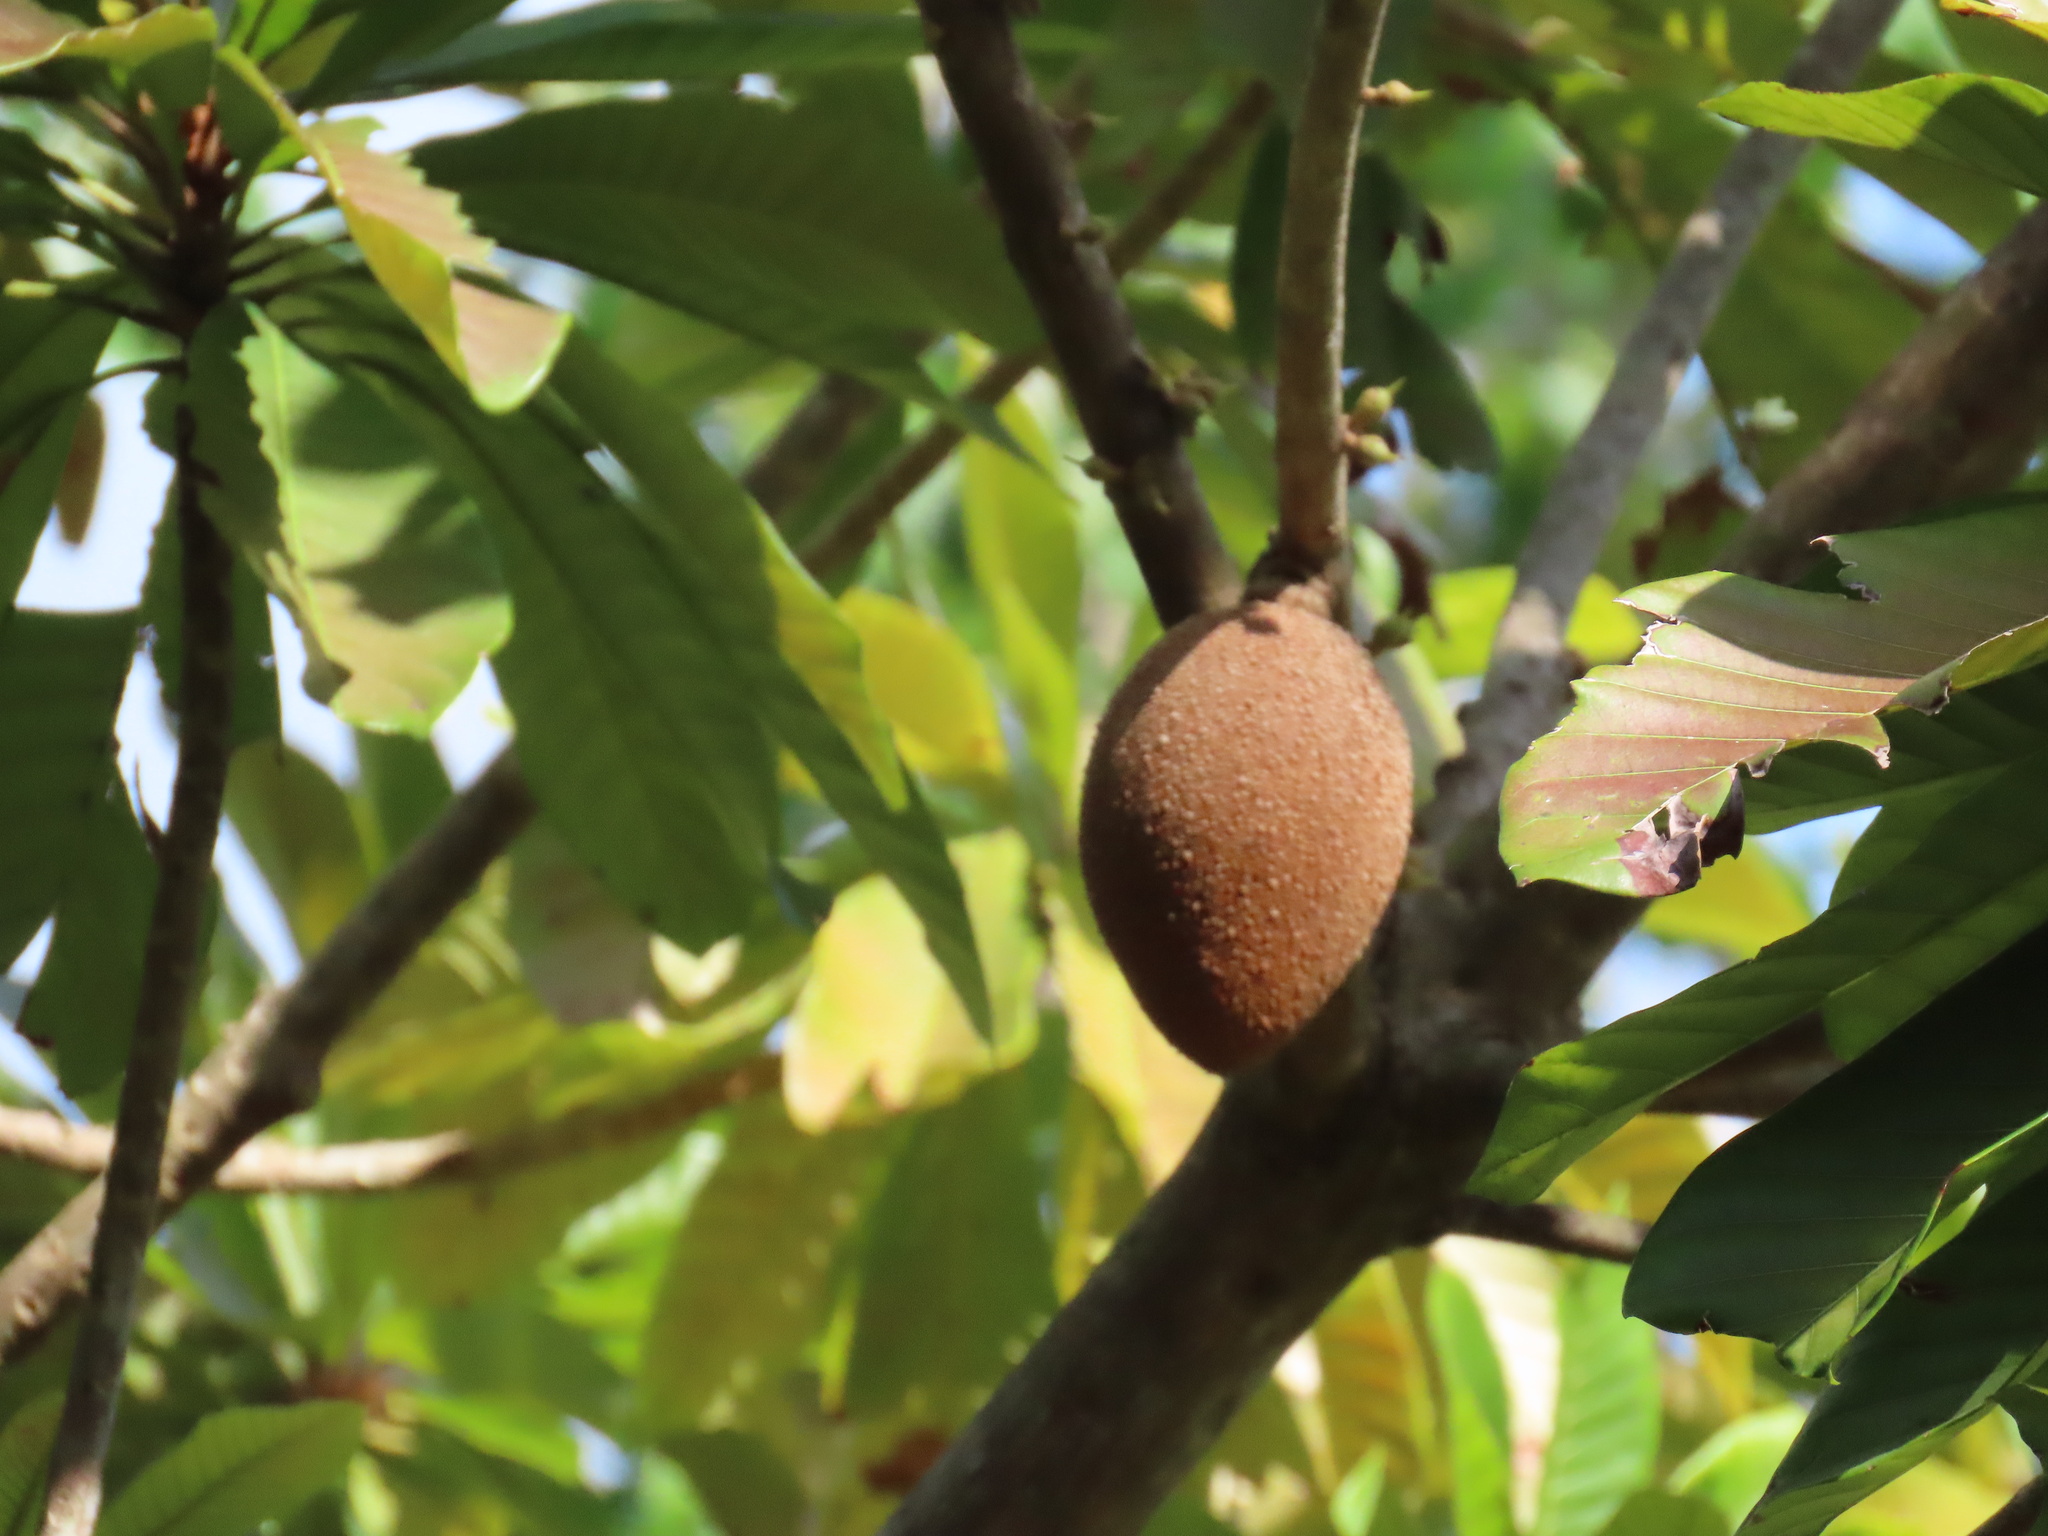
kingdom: Plantae
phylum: Tracheophyta
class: Magnoliopsida
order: Ericales
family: Sapotaceae
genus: Pouteria
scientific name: Pouteria sapota
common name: Mamey
